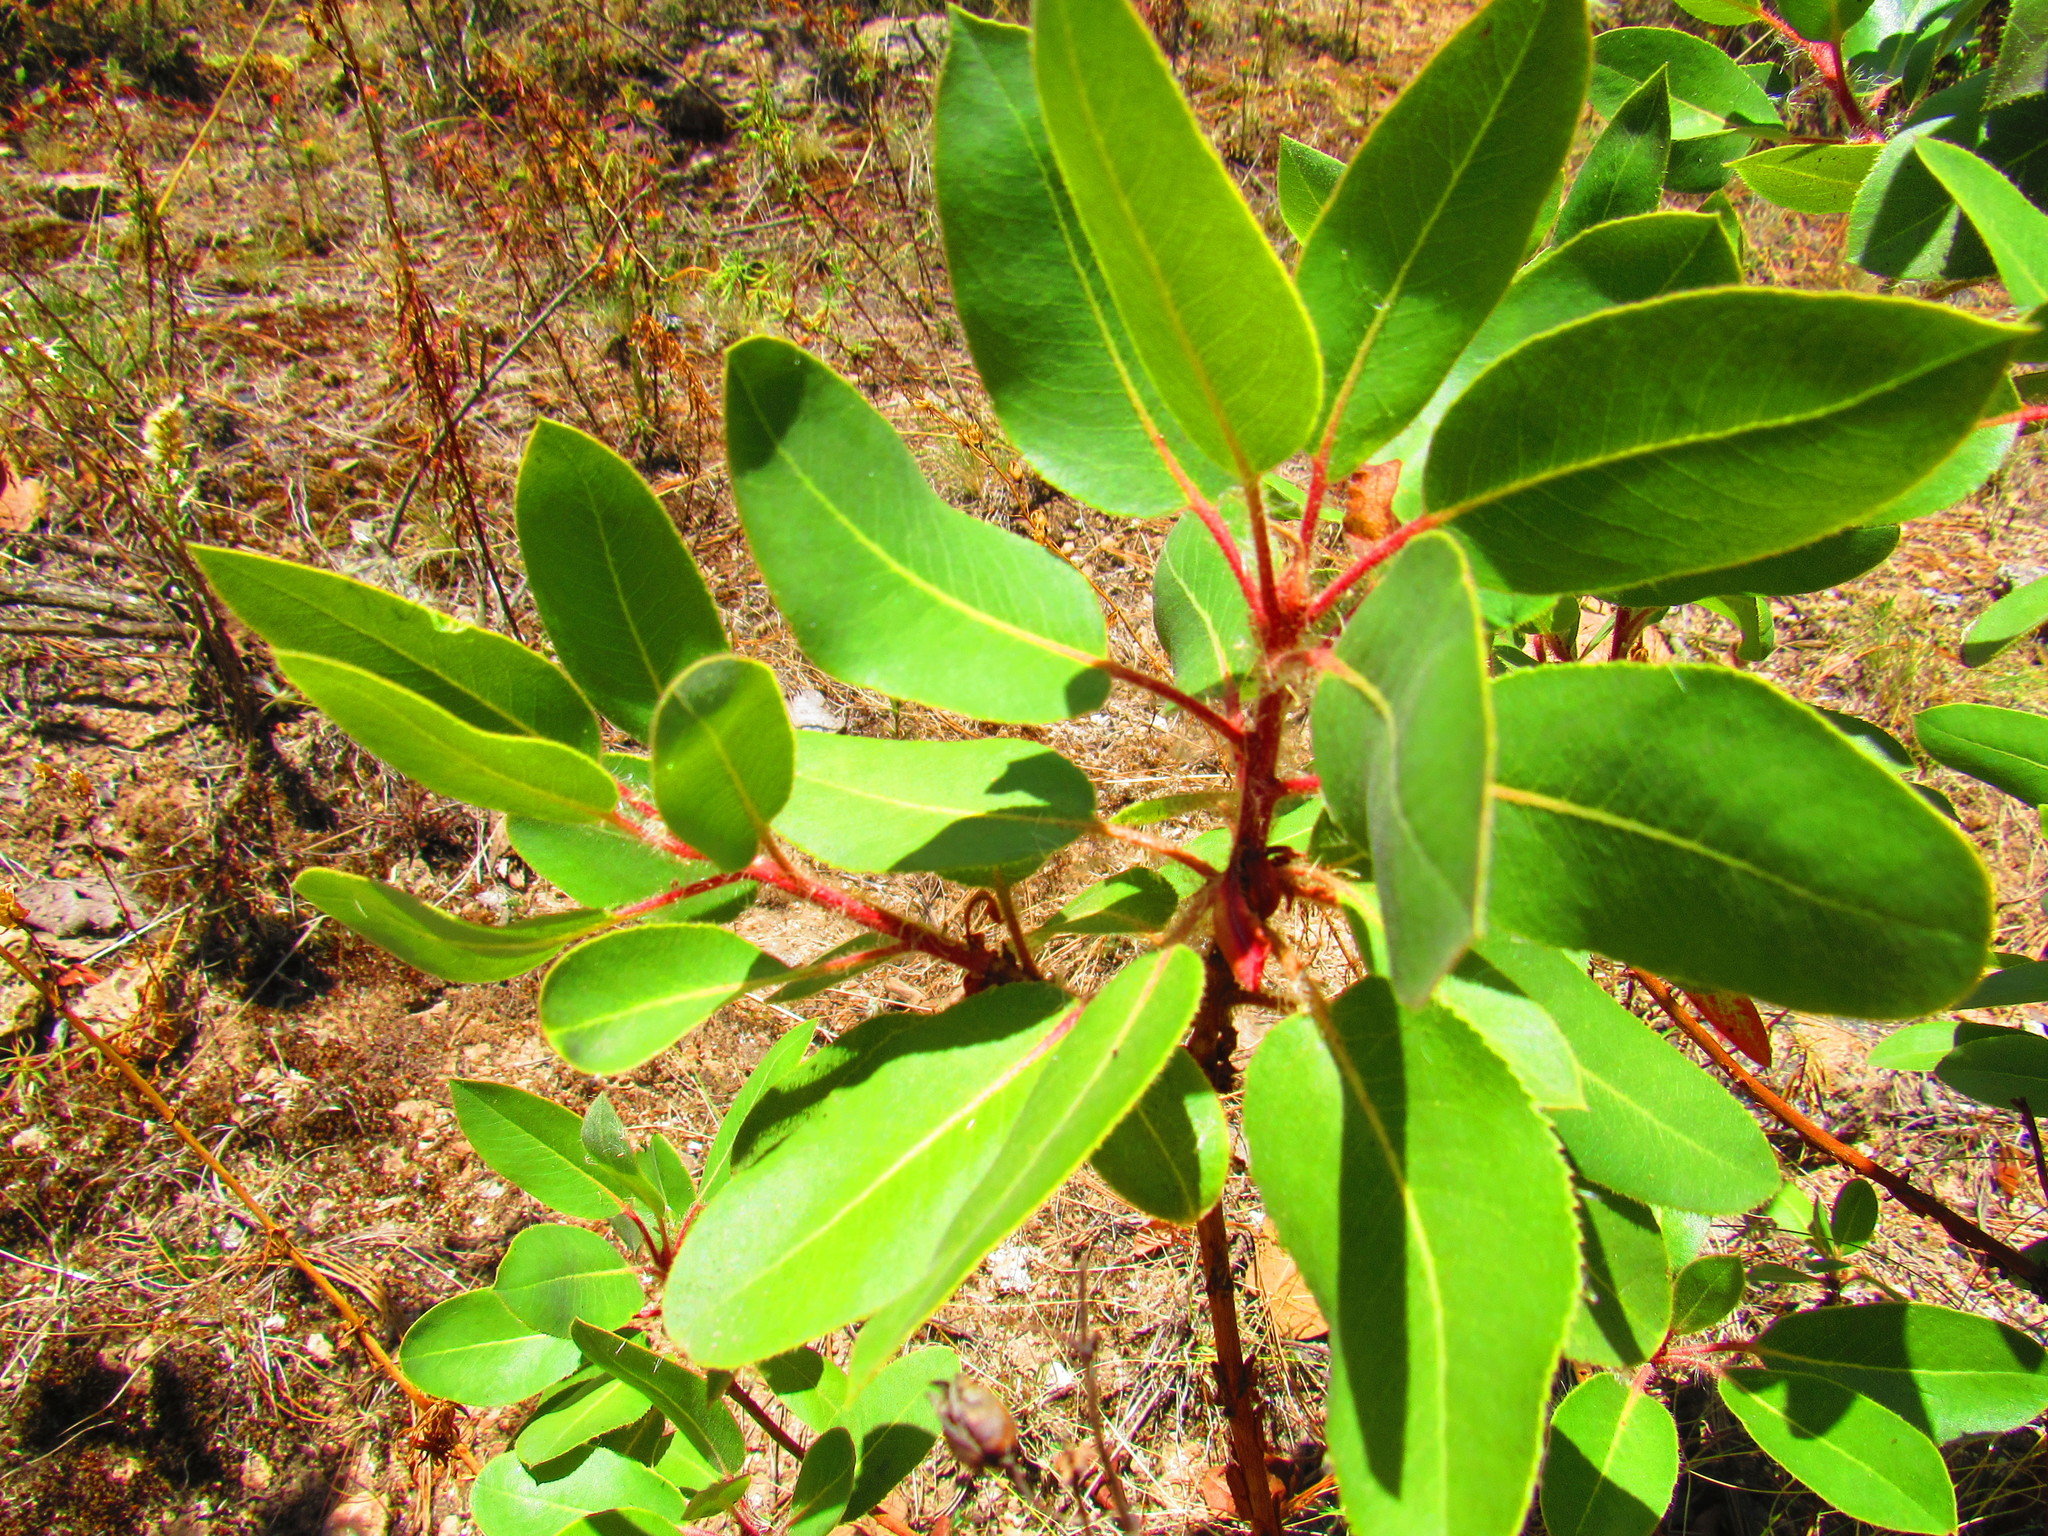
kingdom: Plantae
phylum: Tracheophyta
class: Magnoliopsida
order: Ericales
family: Ericaceae
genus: Arbutus
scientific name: Arbutus tessellata
